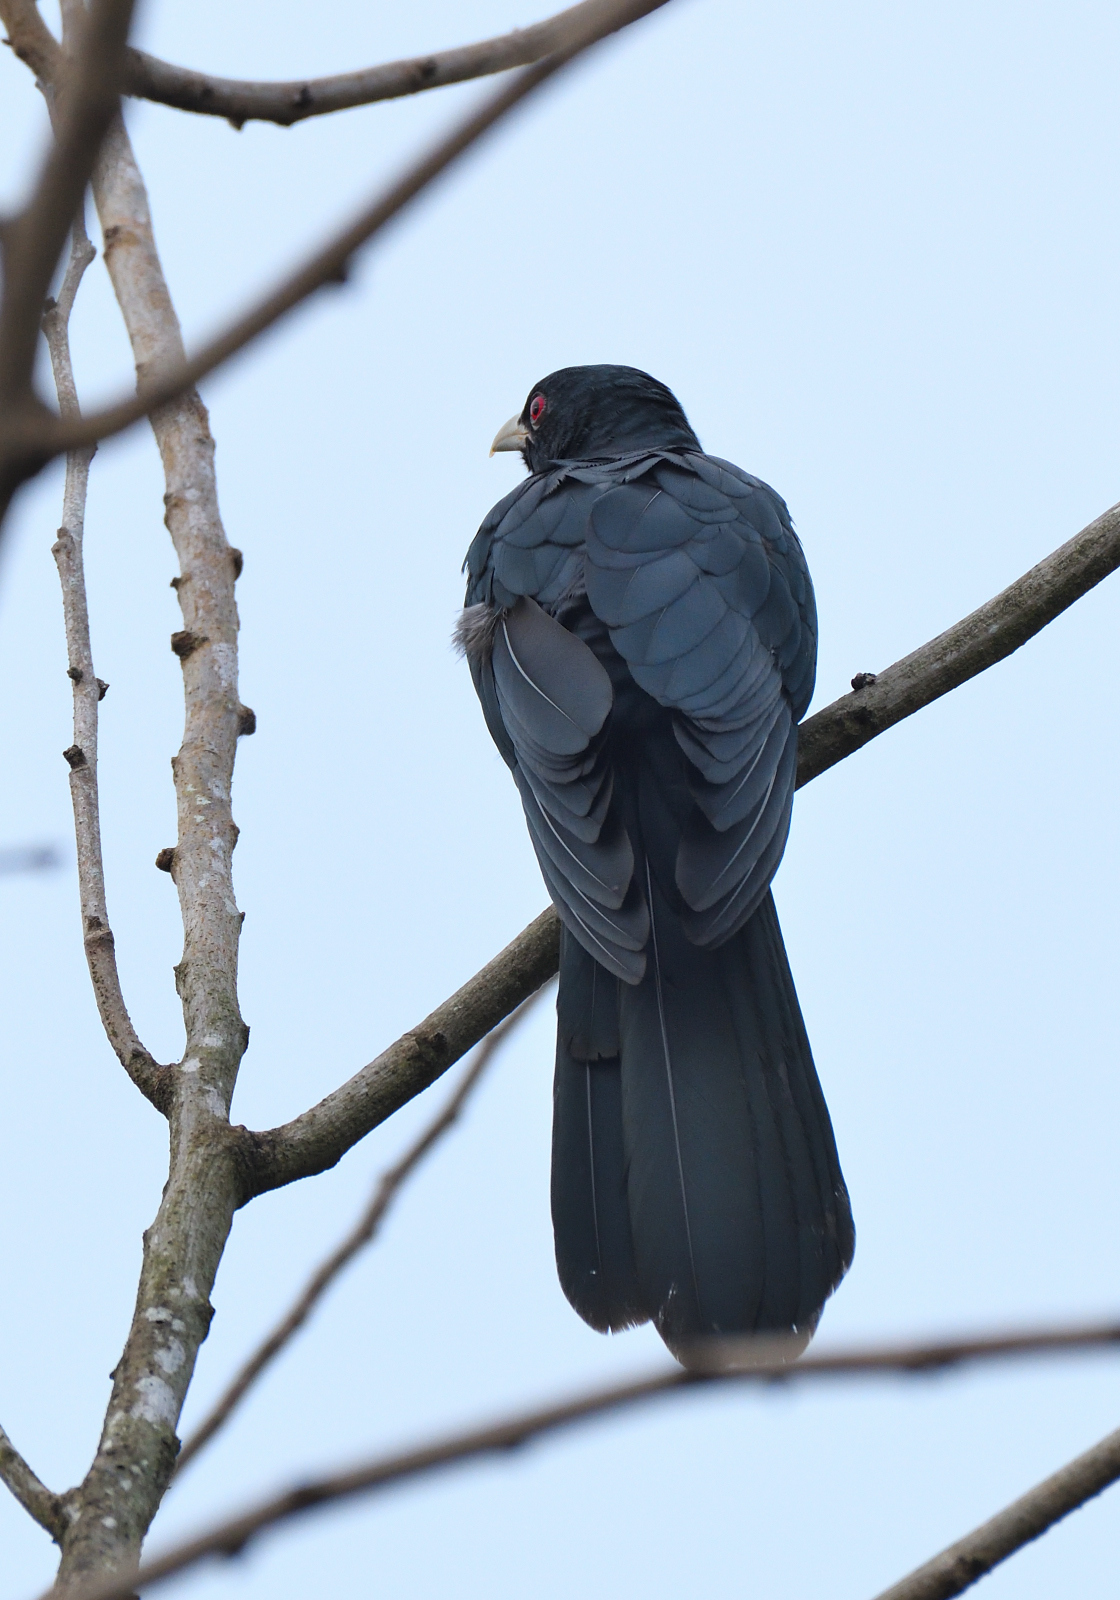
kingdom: Animalia
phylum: Chordata
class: Aves
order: Cuculiformes
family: Cuculidae
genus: Eudynamys
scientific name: Eudynamys scolopaceus
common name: Asian koel
